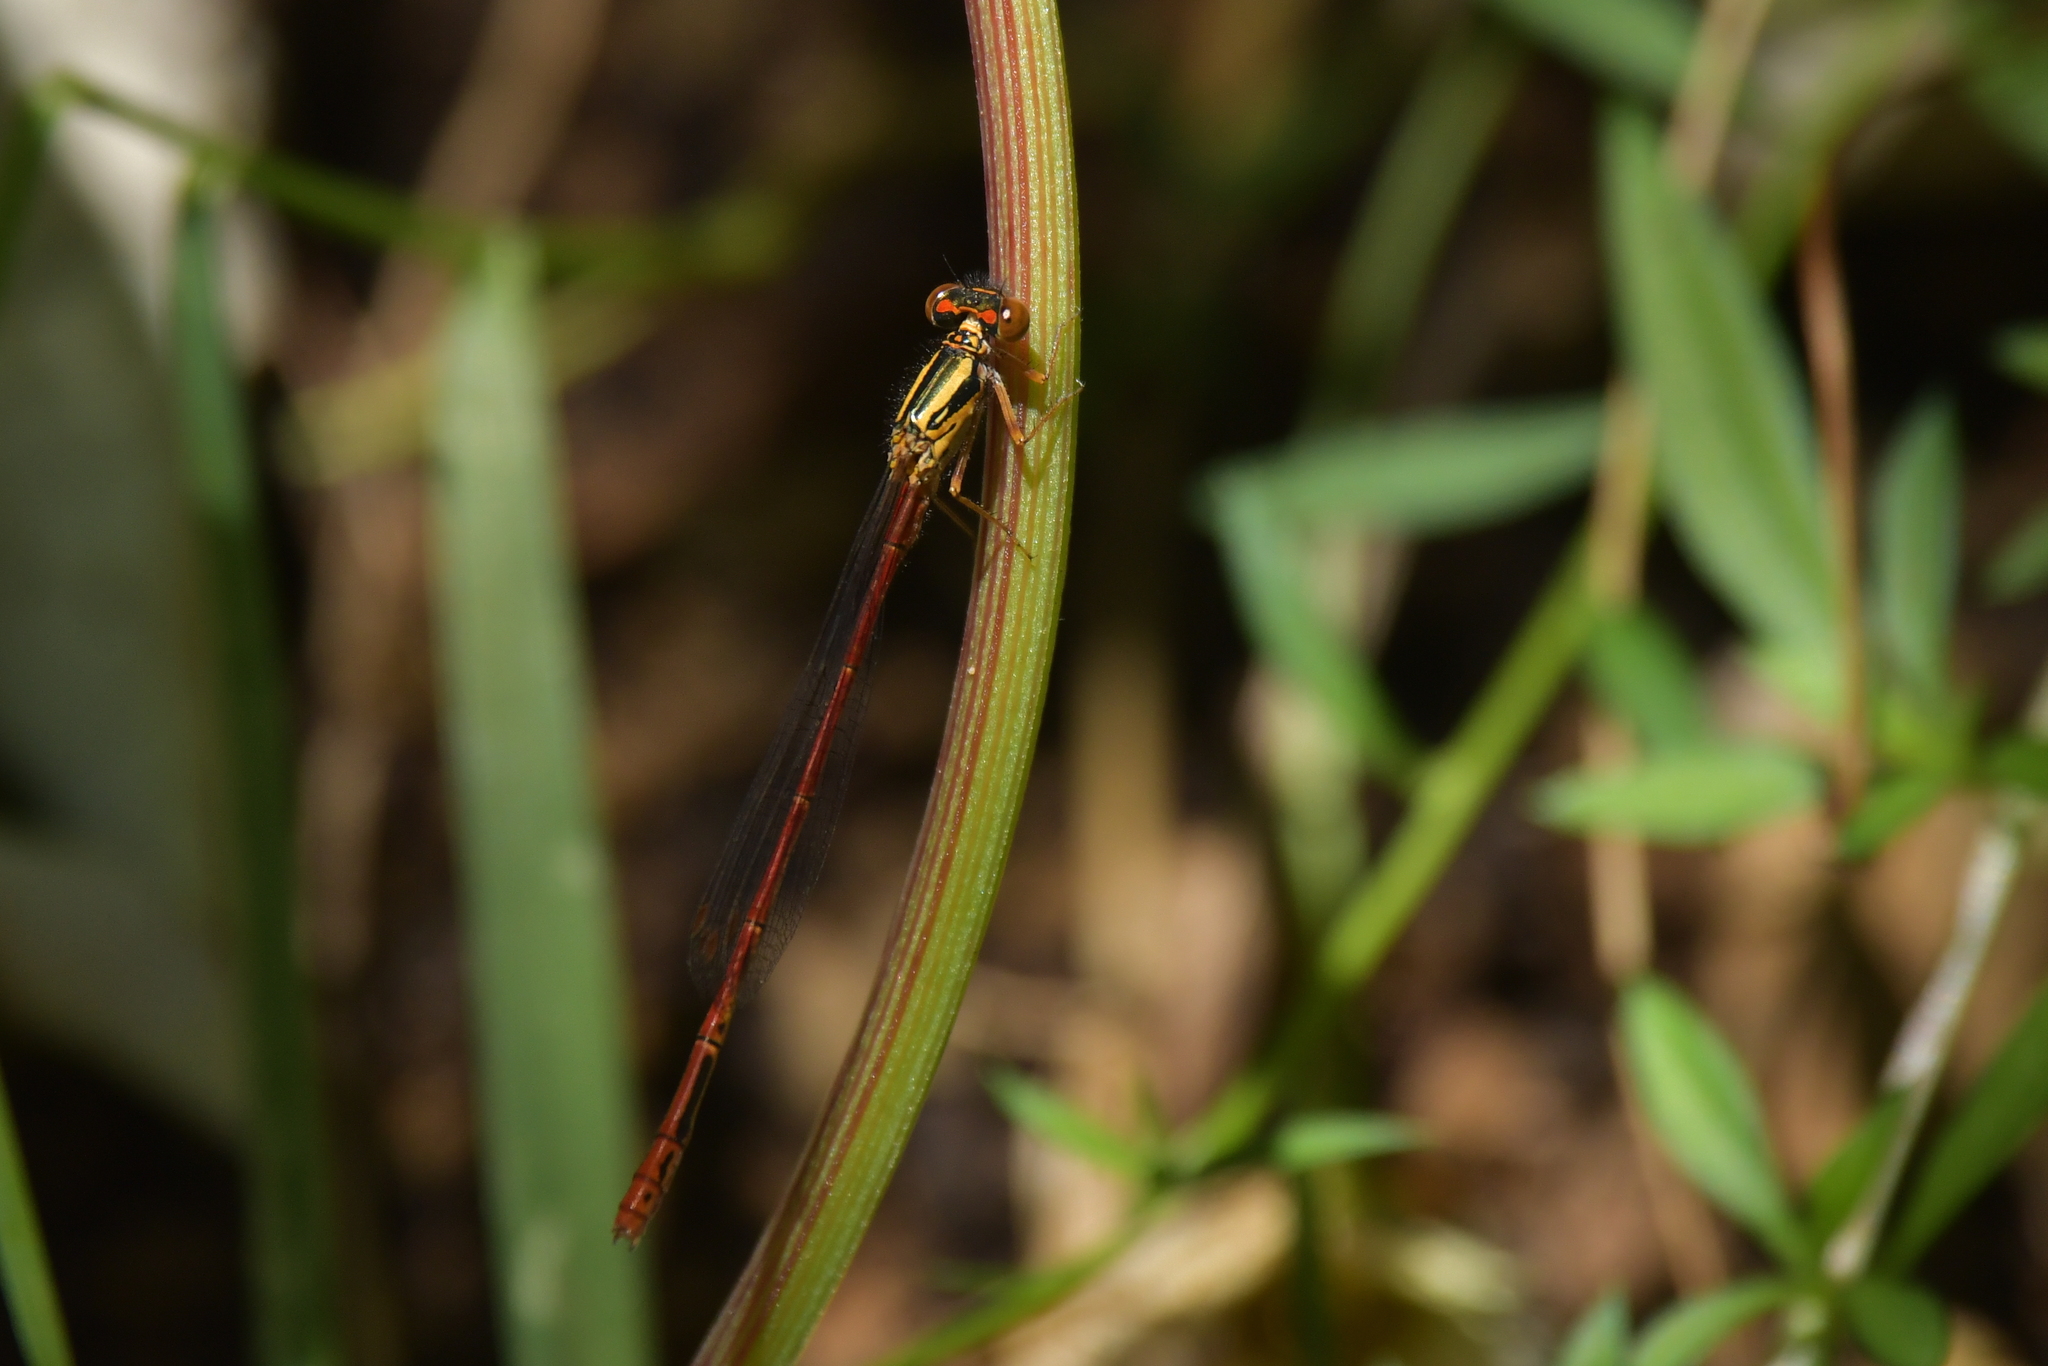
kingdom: Animalia
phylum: Arthropoda
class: Insecta
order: Odonata
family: Coenagrionidae
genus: Xanthocnemis
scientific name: Xanthocnemis zealandica
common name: Common redcoat damselfly
